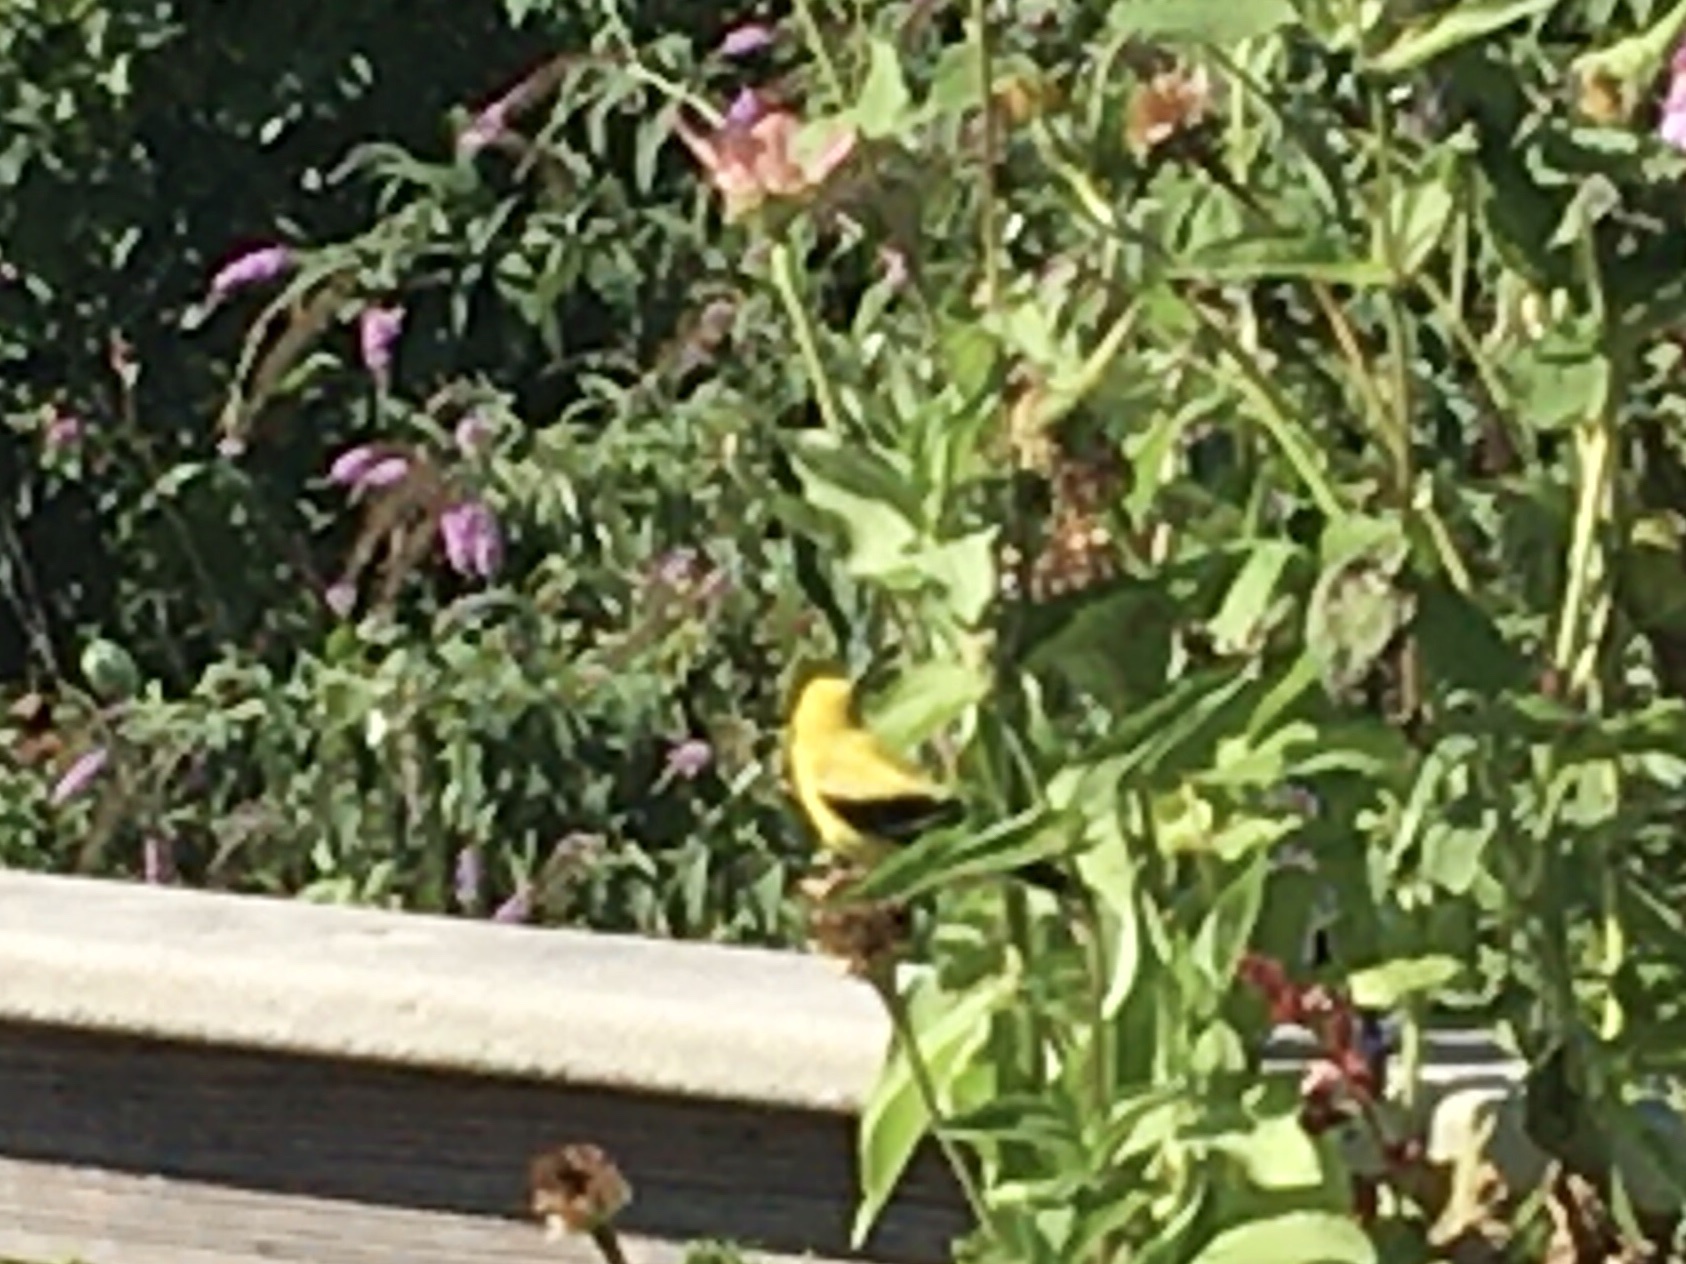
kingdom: Animalia
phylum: Chordata
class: Aves
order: Passeriformes
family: Fringillidae
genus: Spinus
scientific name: Spinus tristis
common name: American goldfinch
